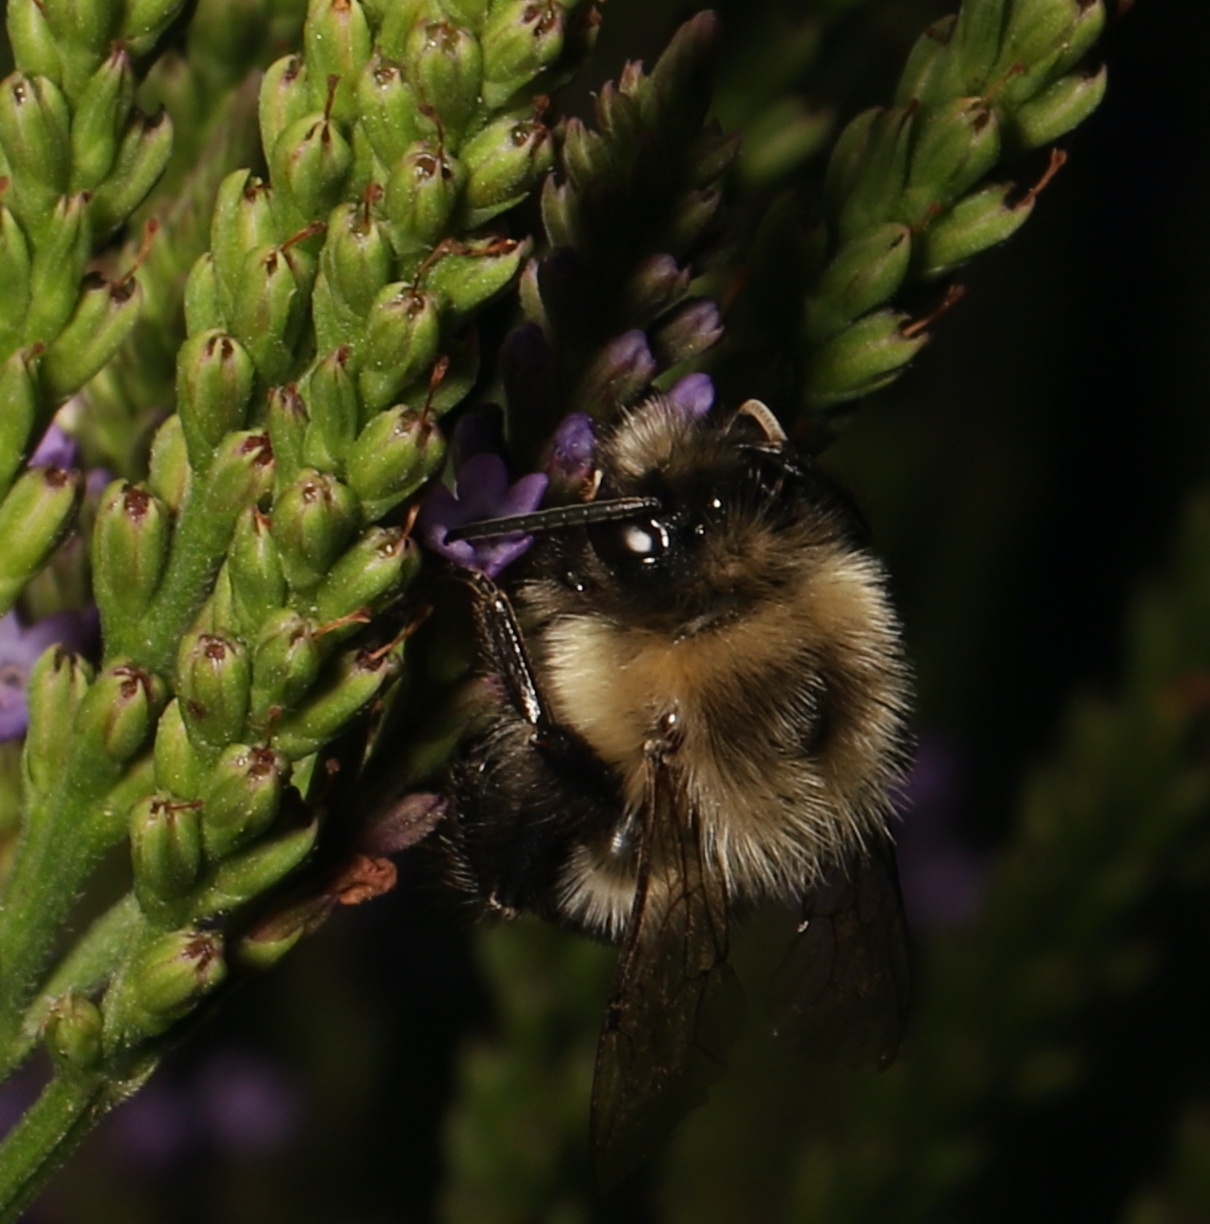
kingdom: Animalia
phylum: Arthropoda
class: Insecta
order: Hymenoptera
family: Apidae
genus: Bombus
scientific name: Bombus impatiens
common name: Common eastern bumble bee
